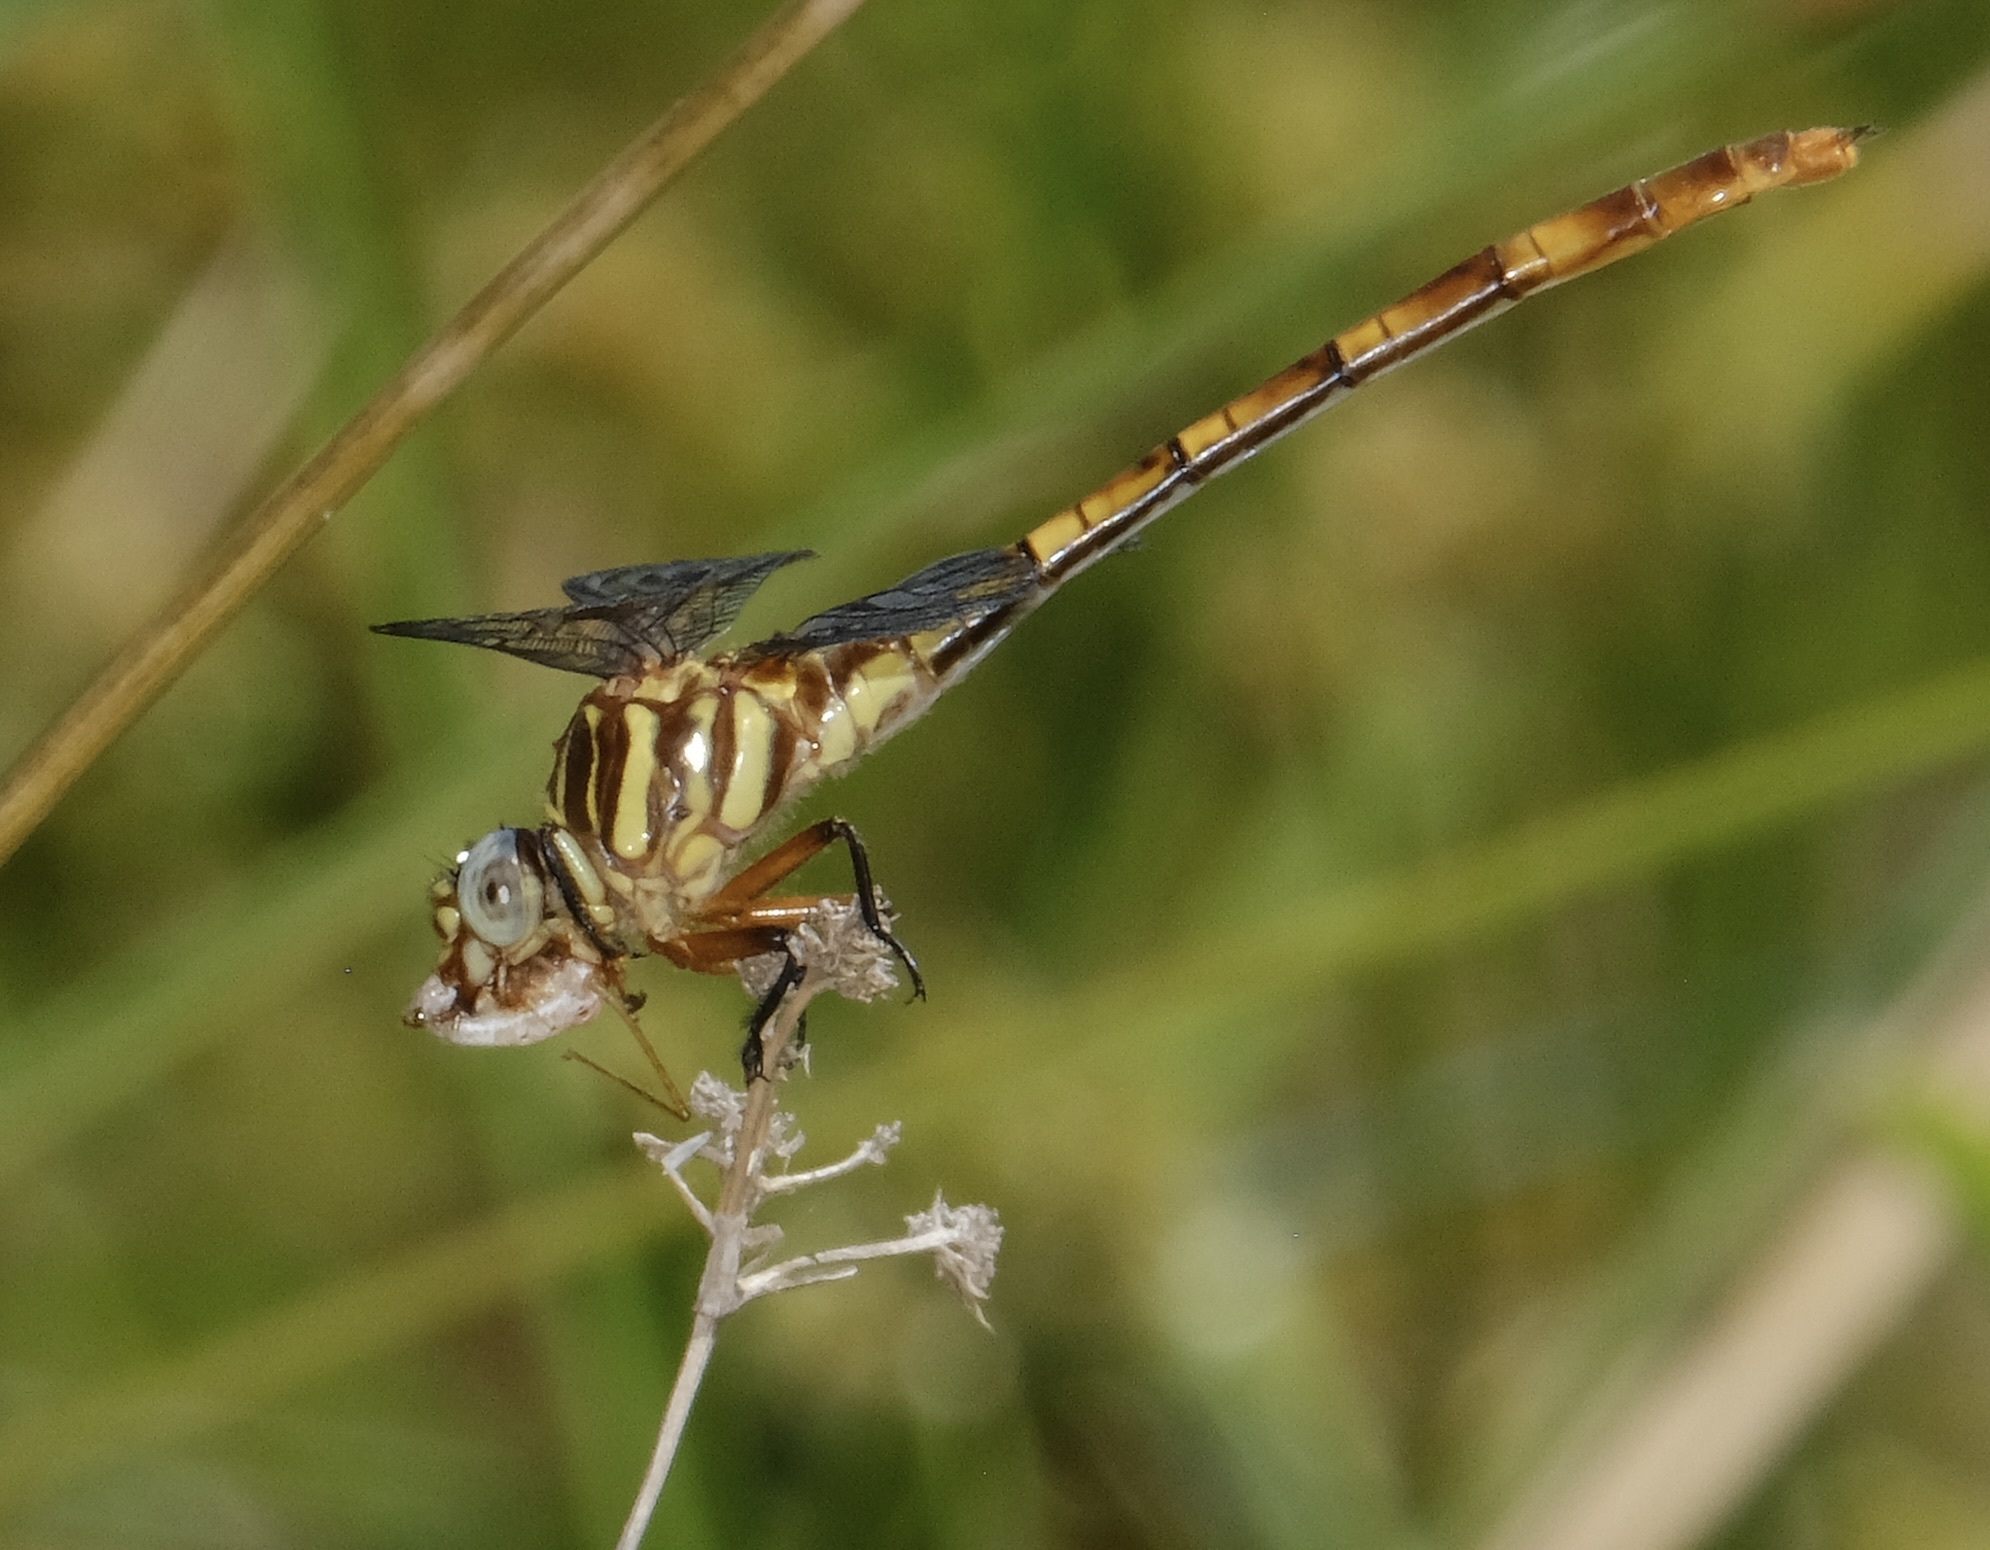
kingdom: Animalia
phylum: Arthropoda
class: Insecta
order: Odonata
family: Gomphidae
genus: Aphylla
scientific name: Aphylla angustifolia
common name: Broad-striped forceptail
